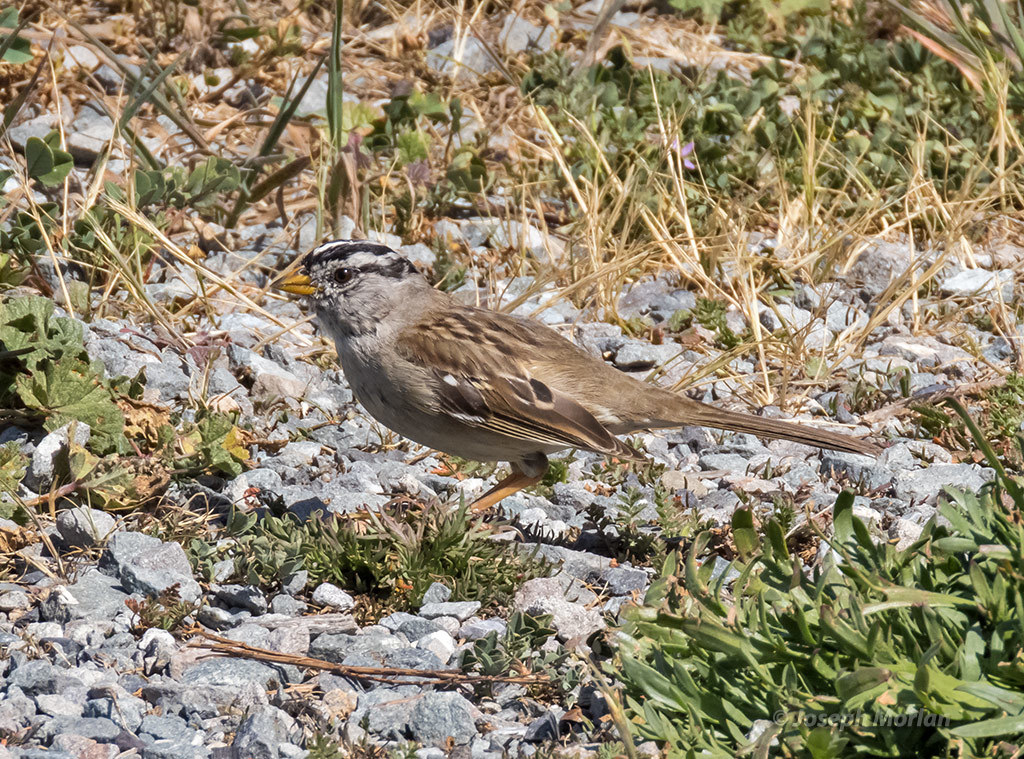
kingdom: Animalia
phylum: Chordata
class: Aves
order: Passeriformes
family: Passerellidae
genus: Zonotrichia
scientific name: Zonotrichia leucophrys
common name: White-crowned sparrow
